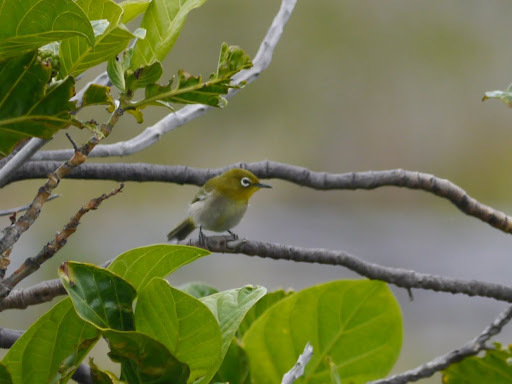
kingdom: Animalia
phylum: Chordata
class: Aves
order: Passeriformes
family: Zosteropidae
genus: Zosterops
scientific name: Zosterops japonicus
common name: Japanese white-eye
